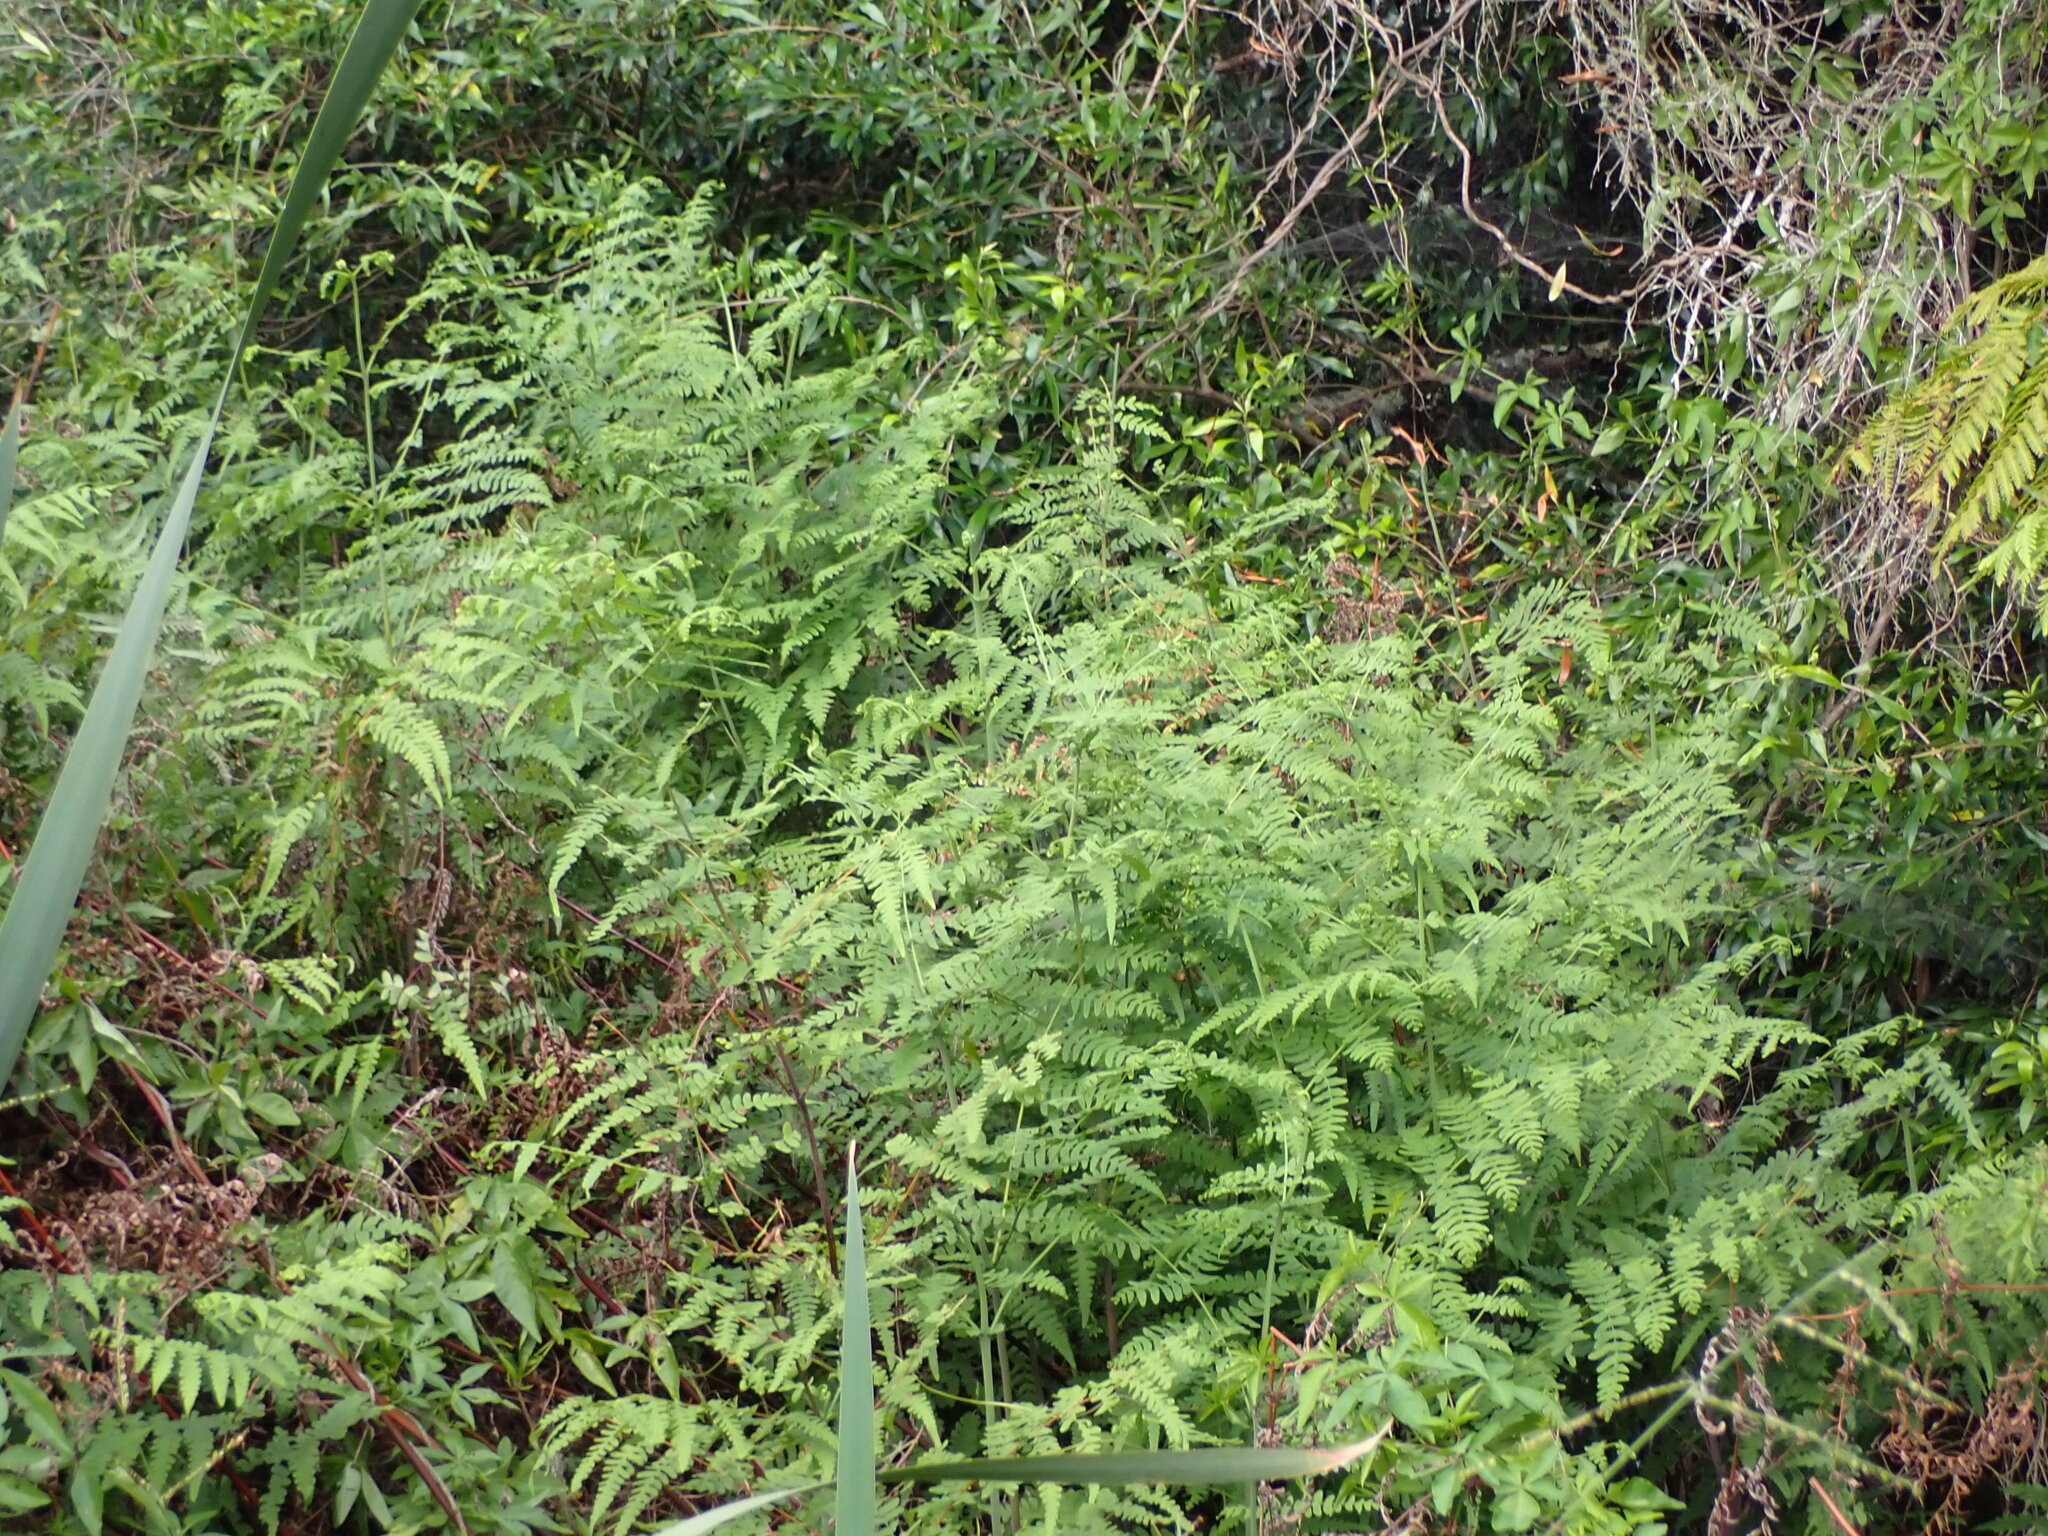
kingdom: Plantae
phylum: Tracheophyta
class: Polypodiopsida
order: Polypodiales
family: Dennstaedtiaceae
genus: Histiopteris
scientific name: Histiopteris incisa
